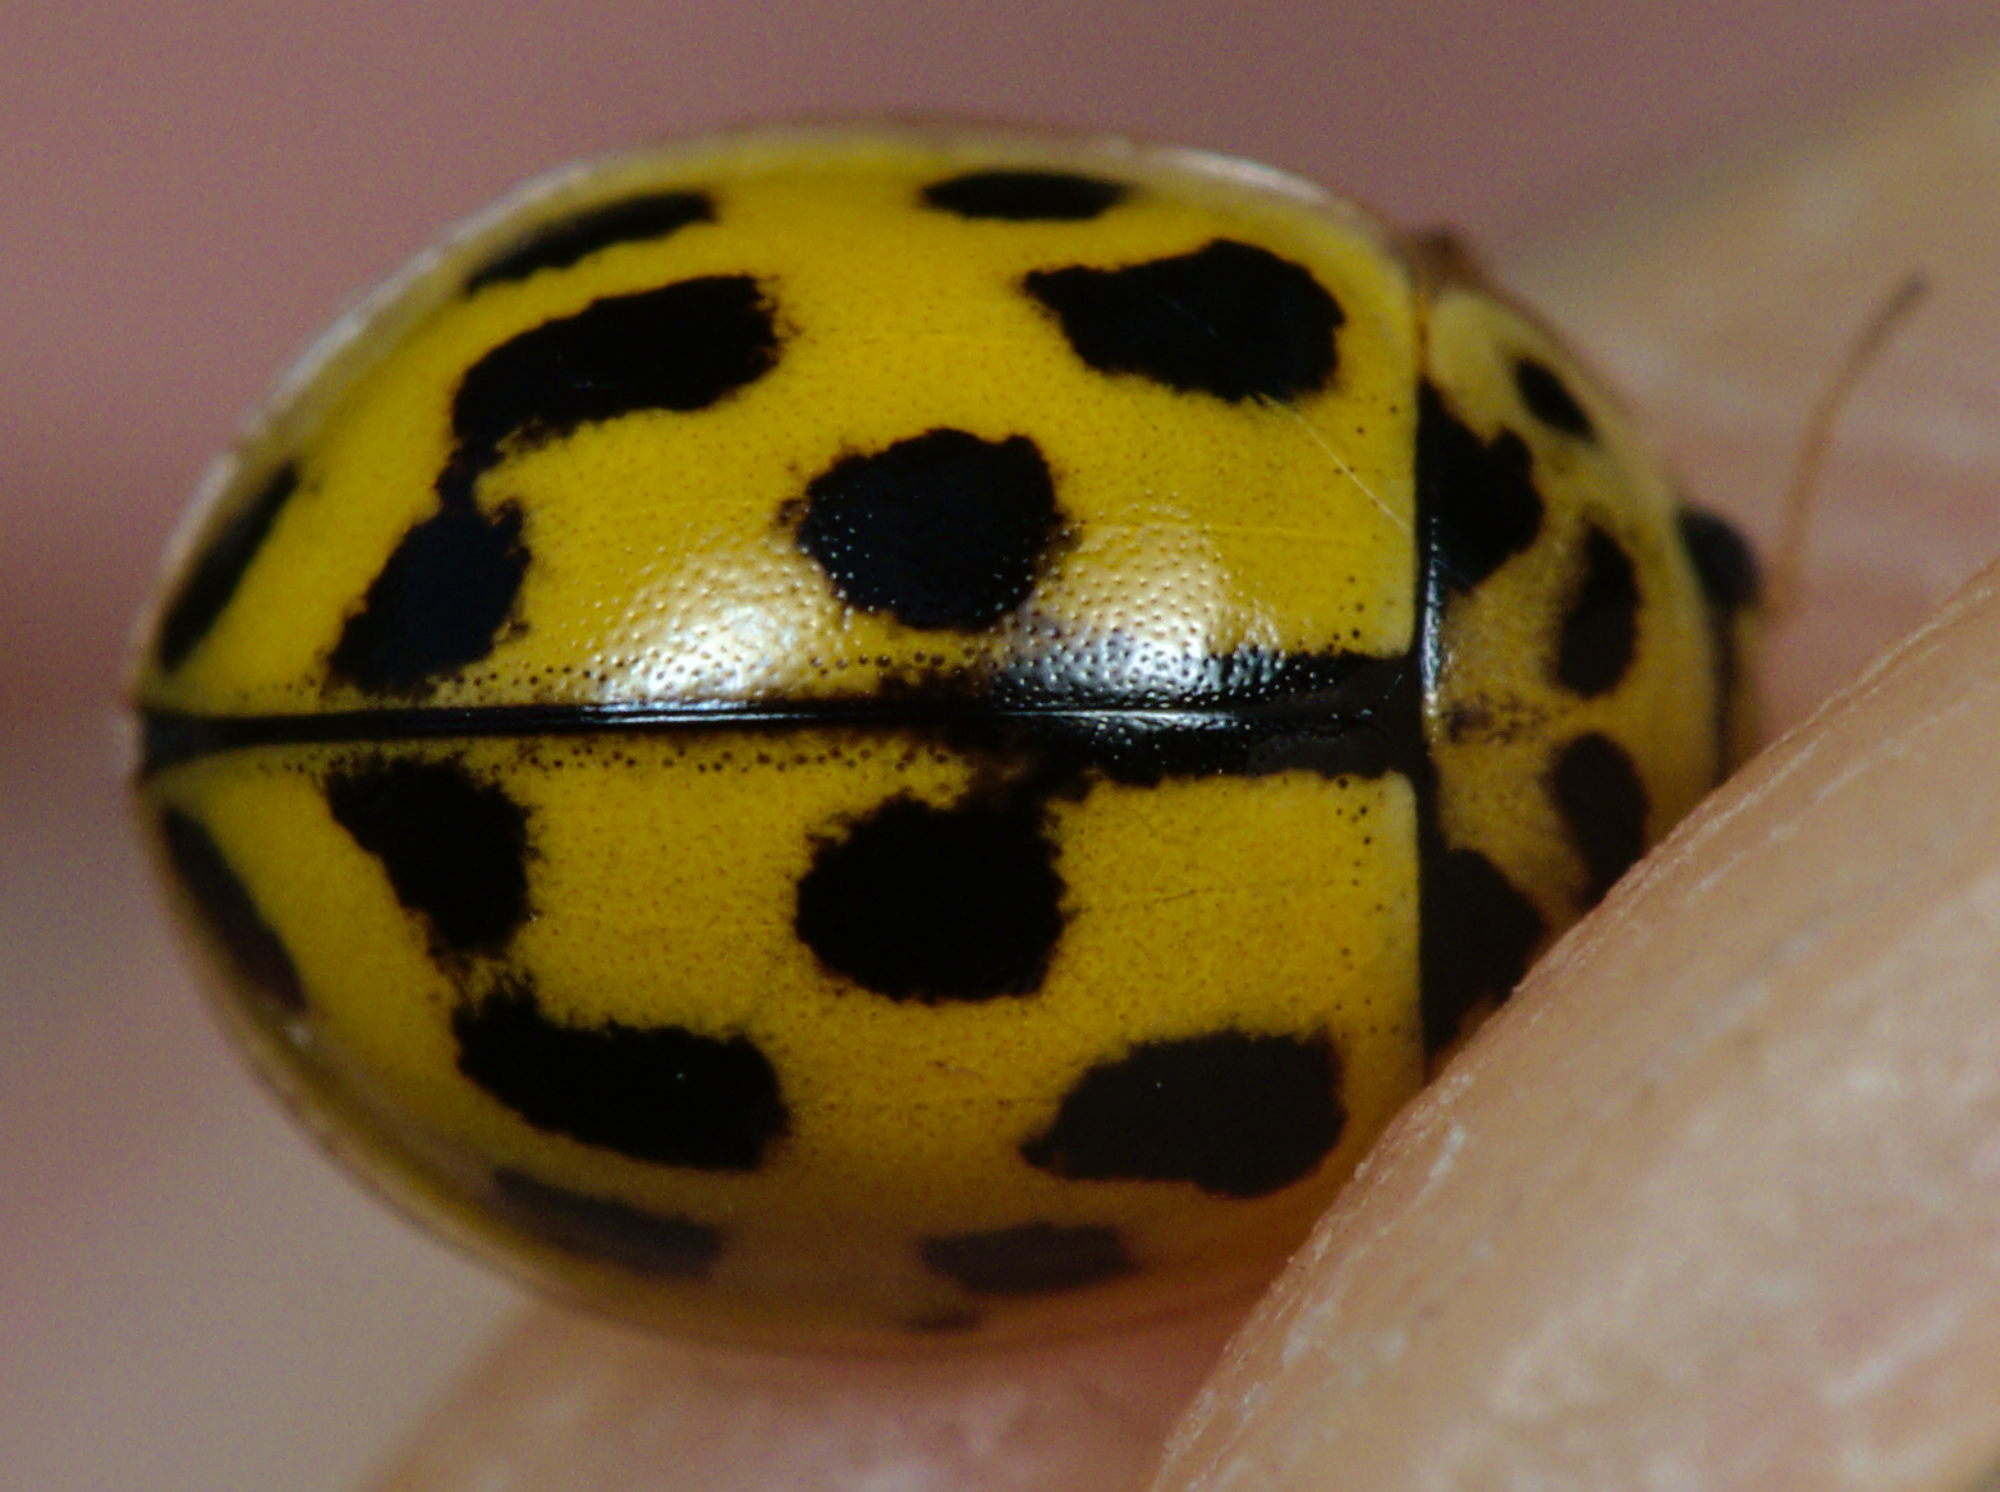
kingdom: Animalia
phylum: Arthropoda
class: Insecta
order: Coleoptera
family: Coccinellidae
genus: Propylaea
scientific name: Propylaea quatuordecimpunctata
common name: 14-spotted ladybird beetle
